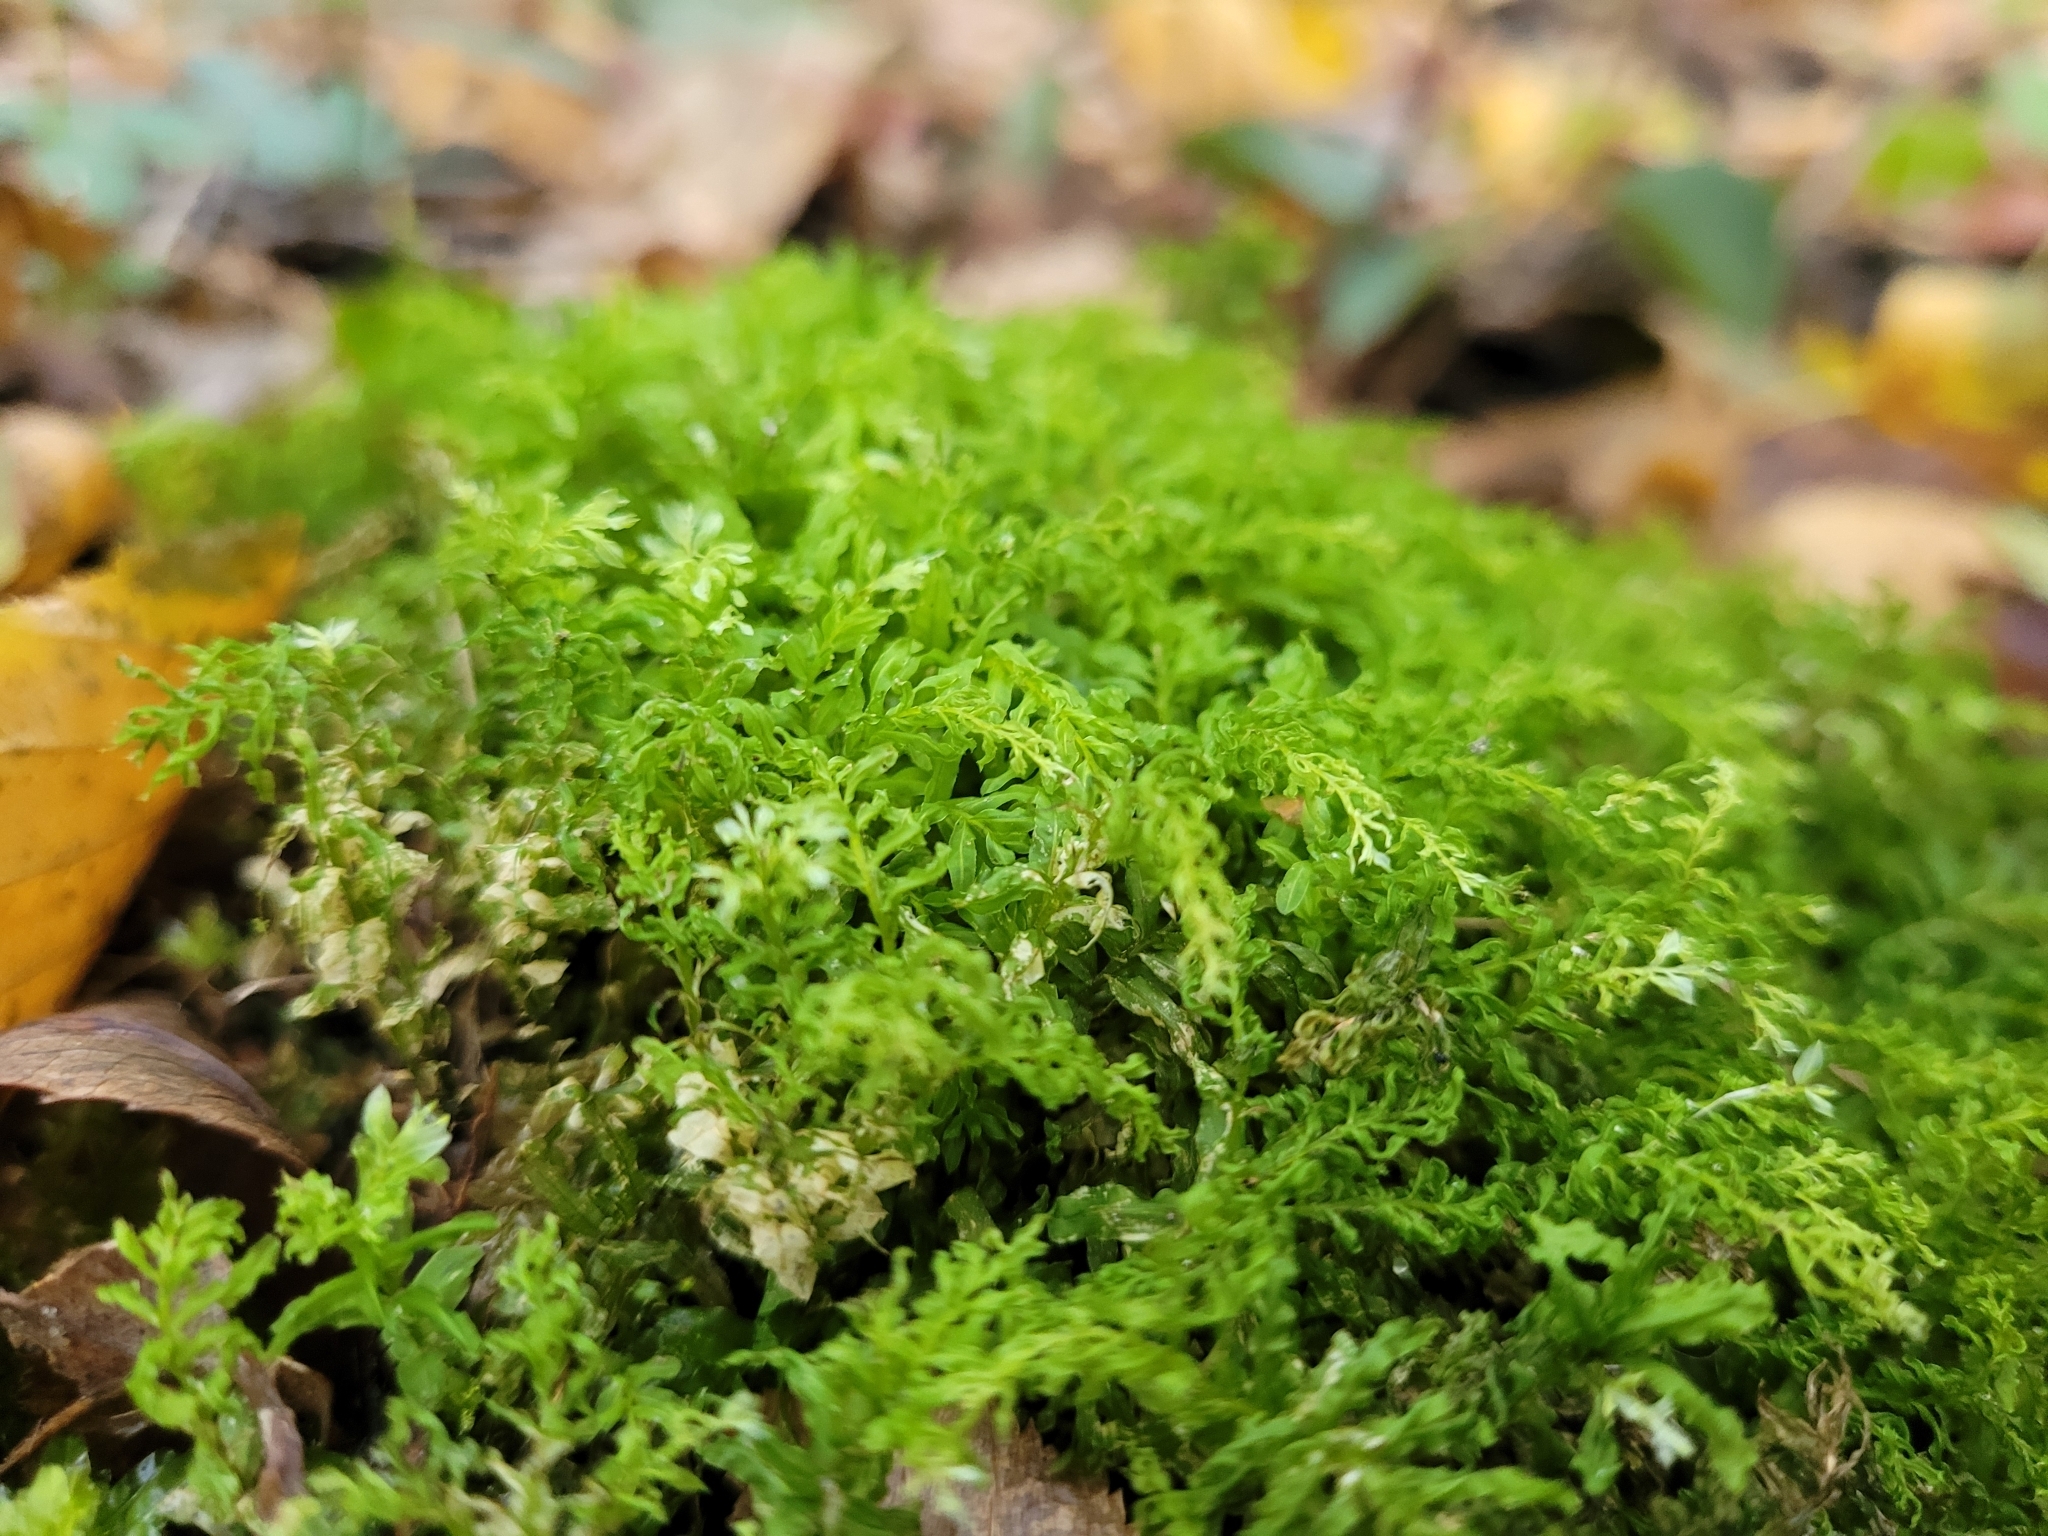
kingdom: Plantae
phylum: Bryophyta
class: Bryopsida
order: Bryales
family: Mniaceae
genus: Plagiomnium
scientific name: Plagiomnium undulatum
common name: Hart's-tongue thyme-moss
